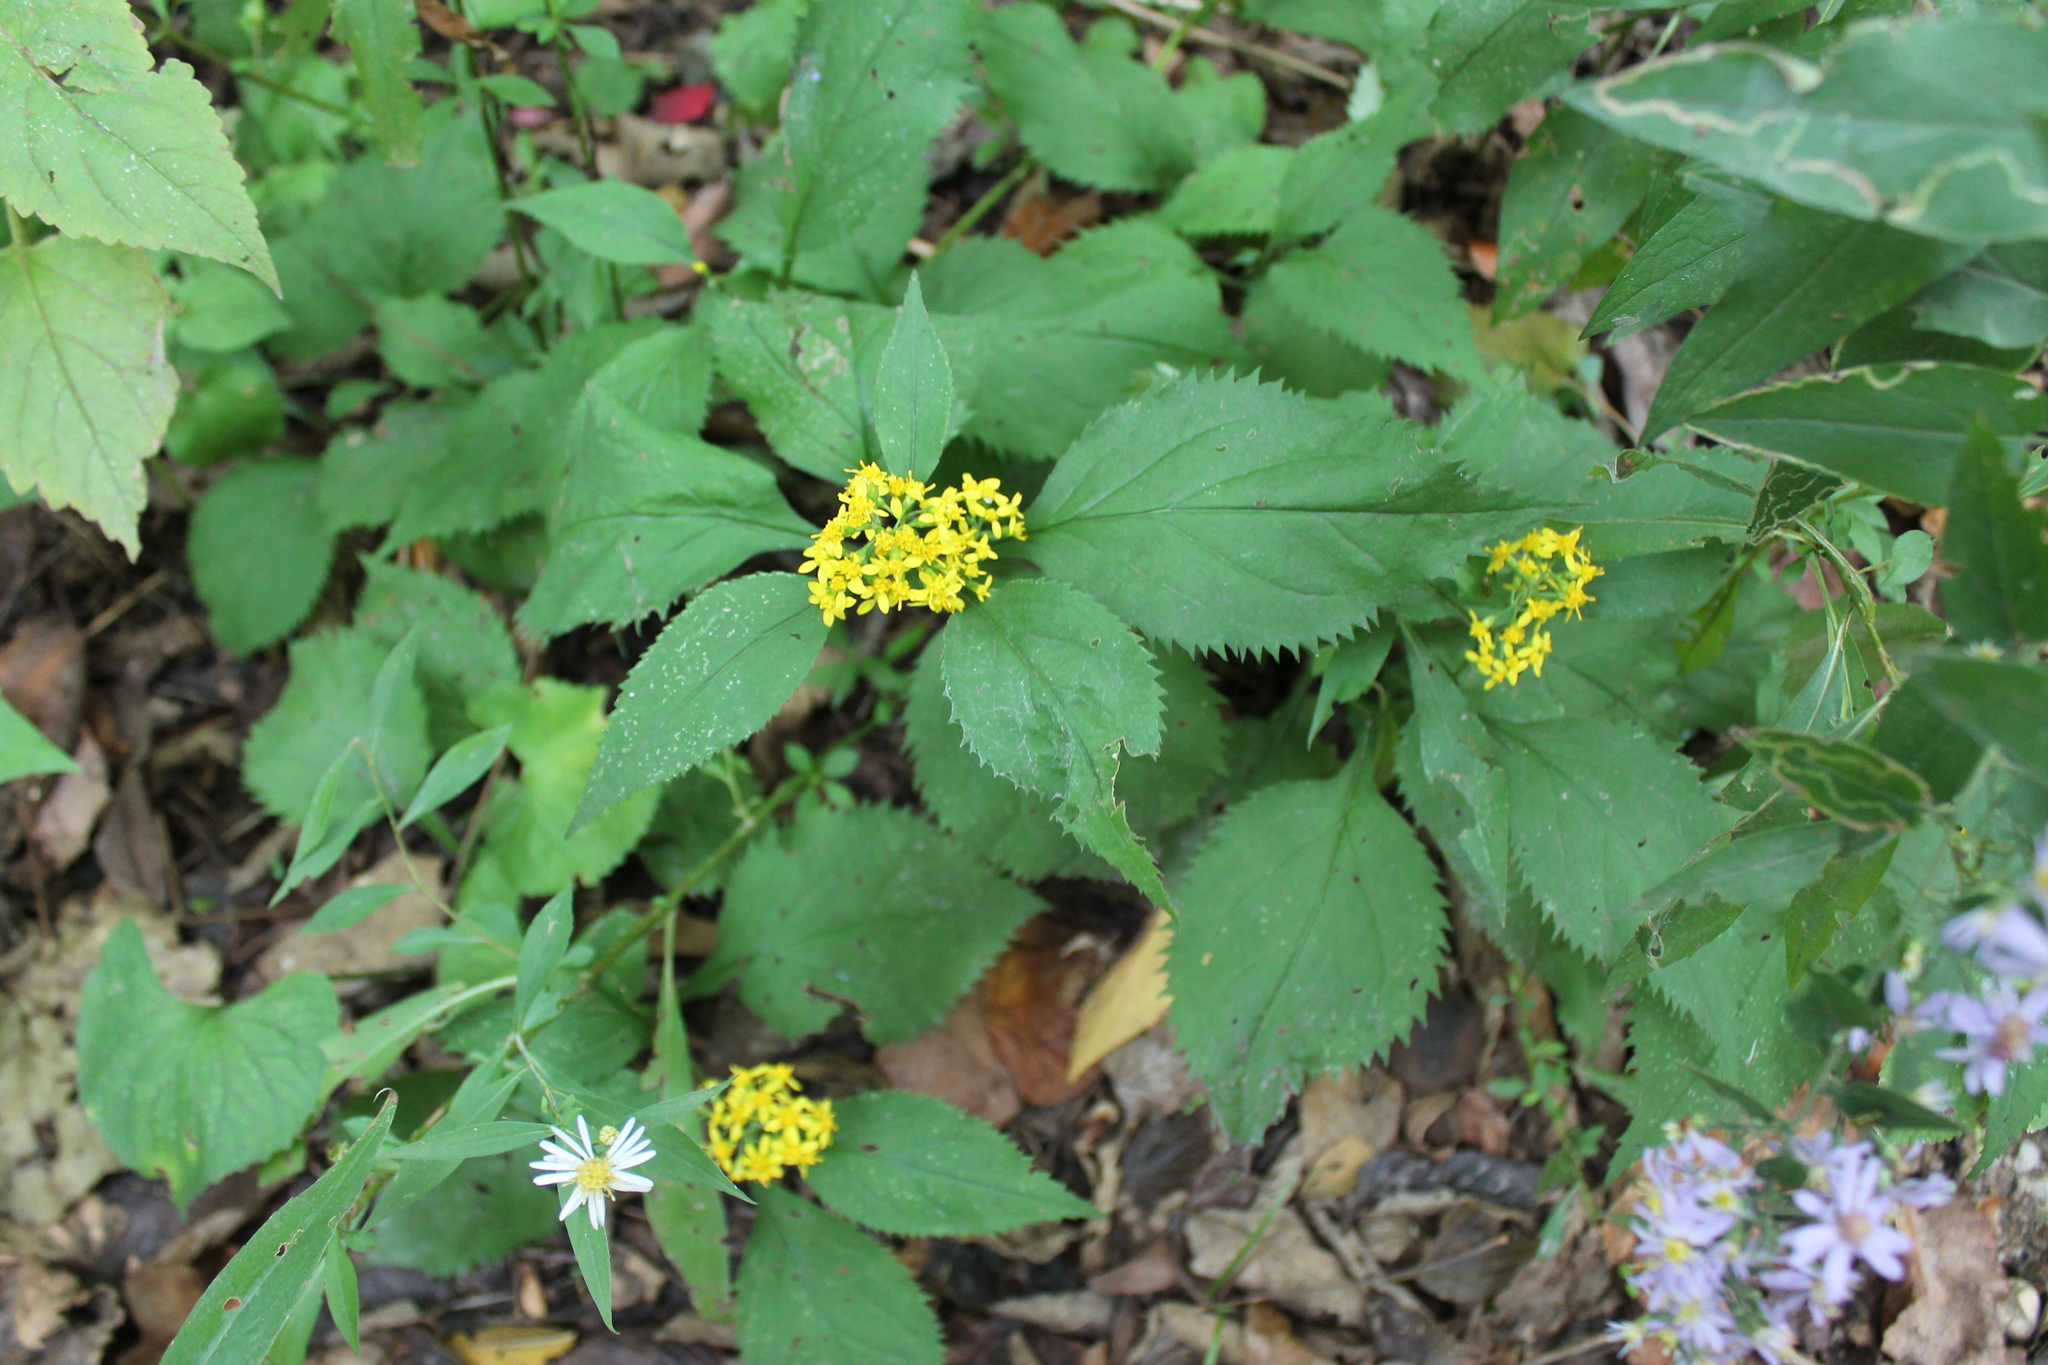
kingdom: Plantae
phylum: Tracheophyta
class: Magnoliopsida
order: Asterales
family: Asteraceae
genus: Solidago
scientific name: Solidago flexicaulis
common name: Zig-zag goldenrod
